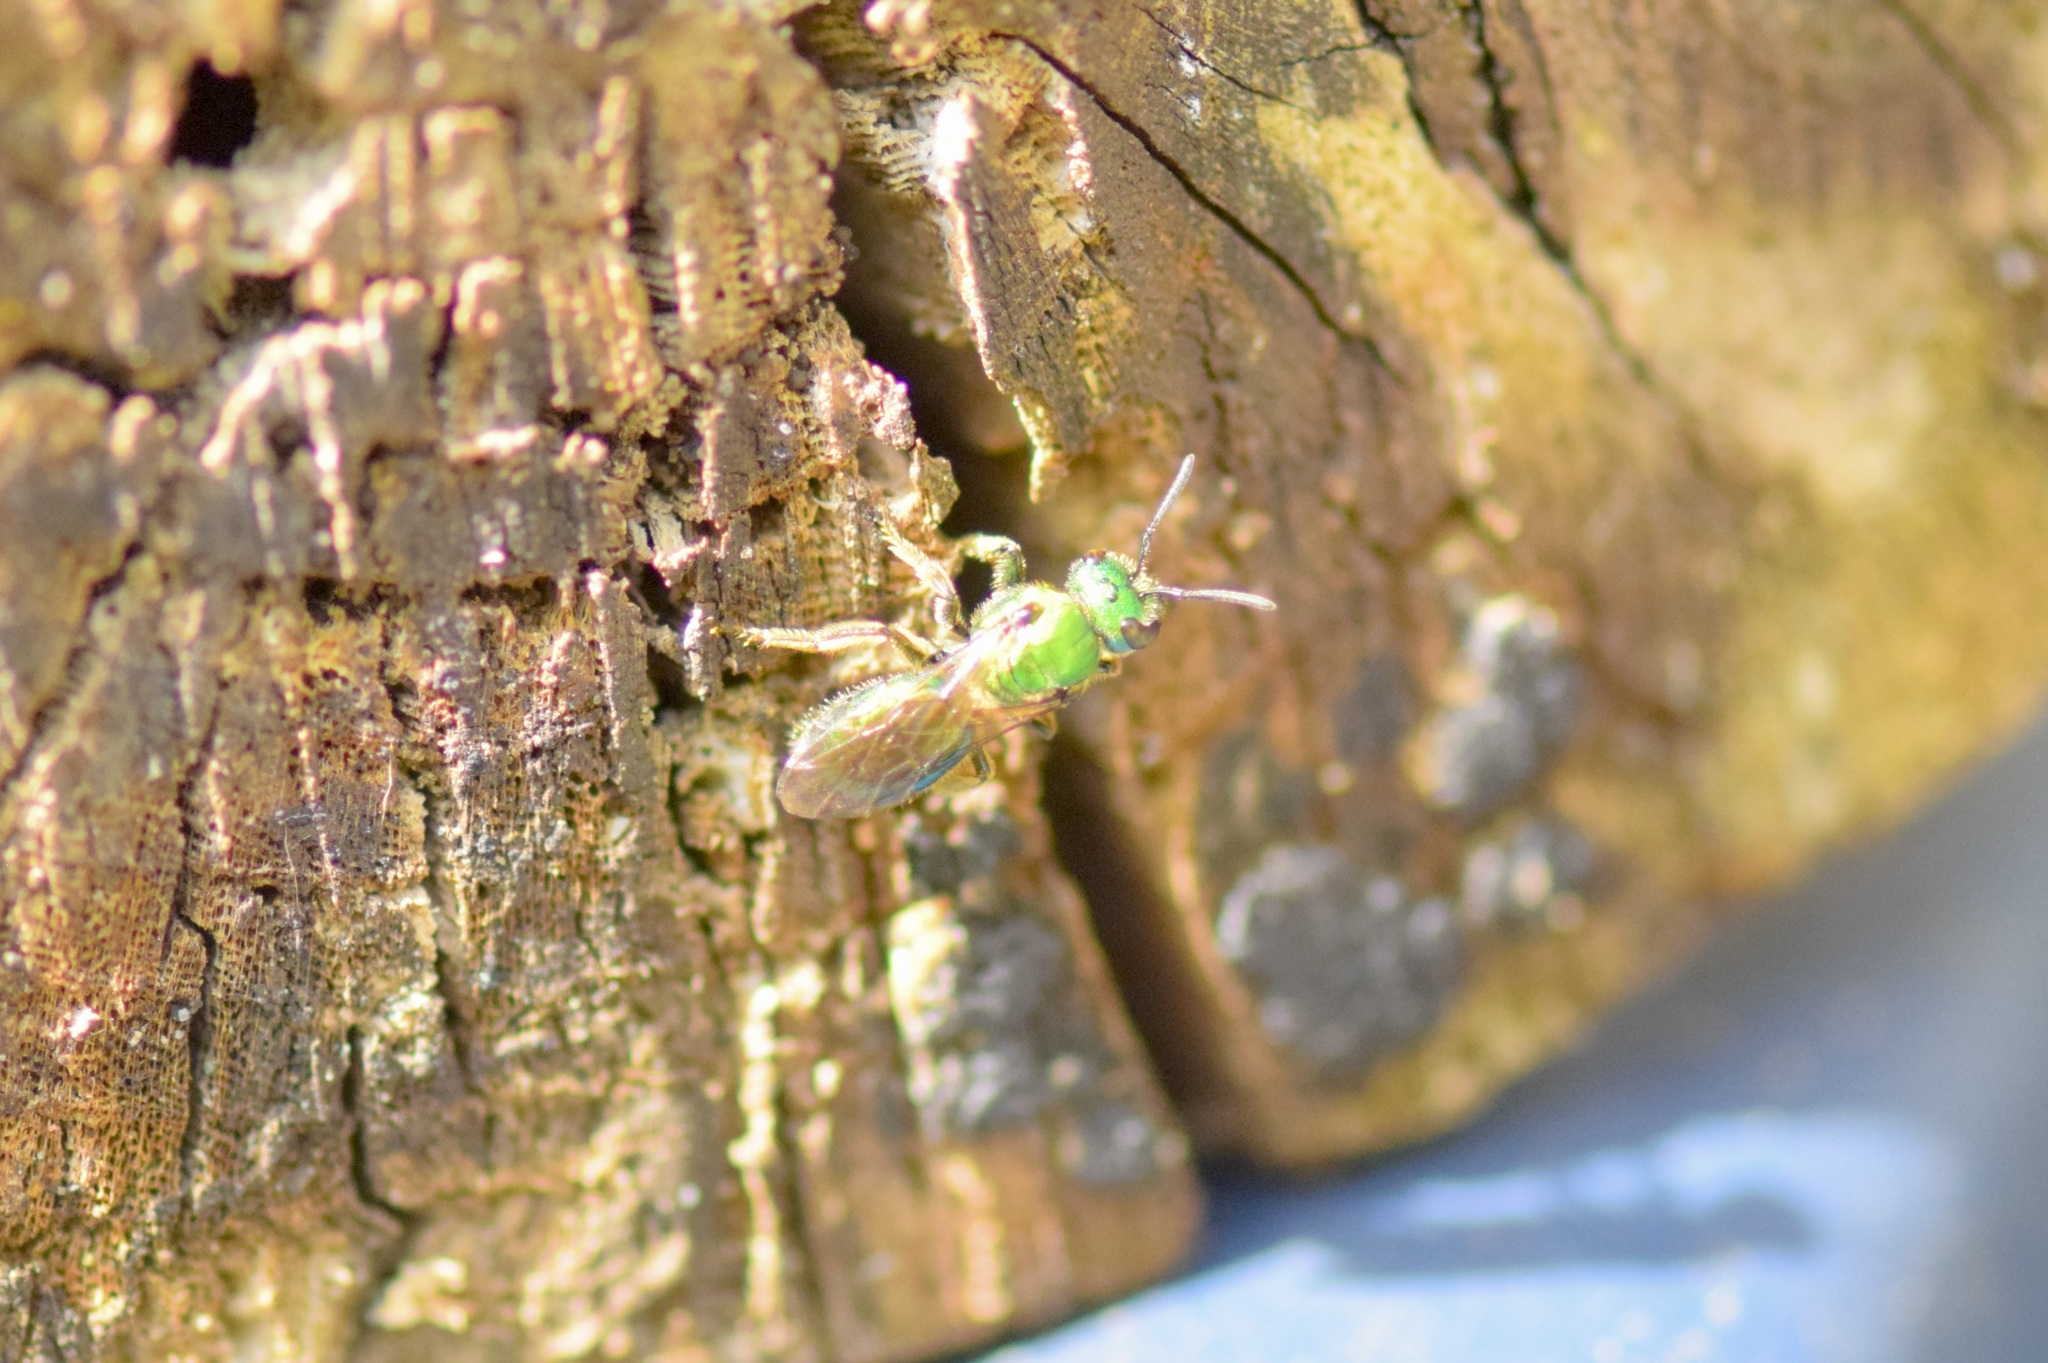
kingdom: Animalia
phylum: Arthropoda
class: Insecta
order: Hymenoptera
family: Halictidae
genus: Augochlora
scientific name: Augochlora pura
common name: Pure green sweat bee
